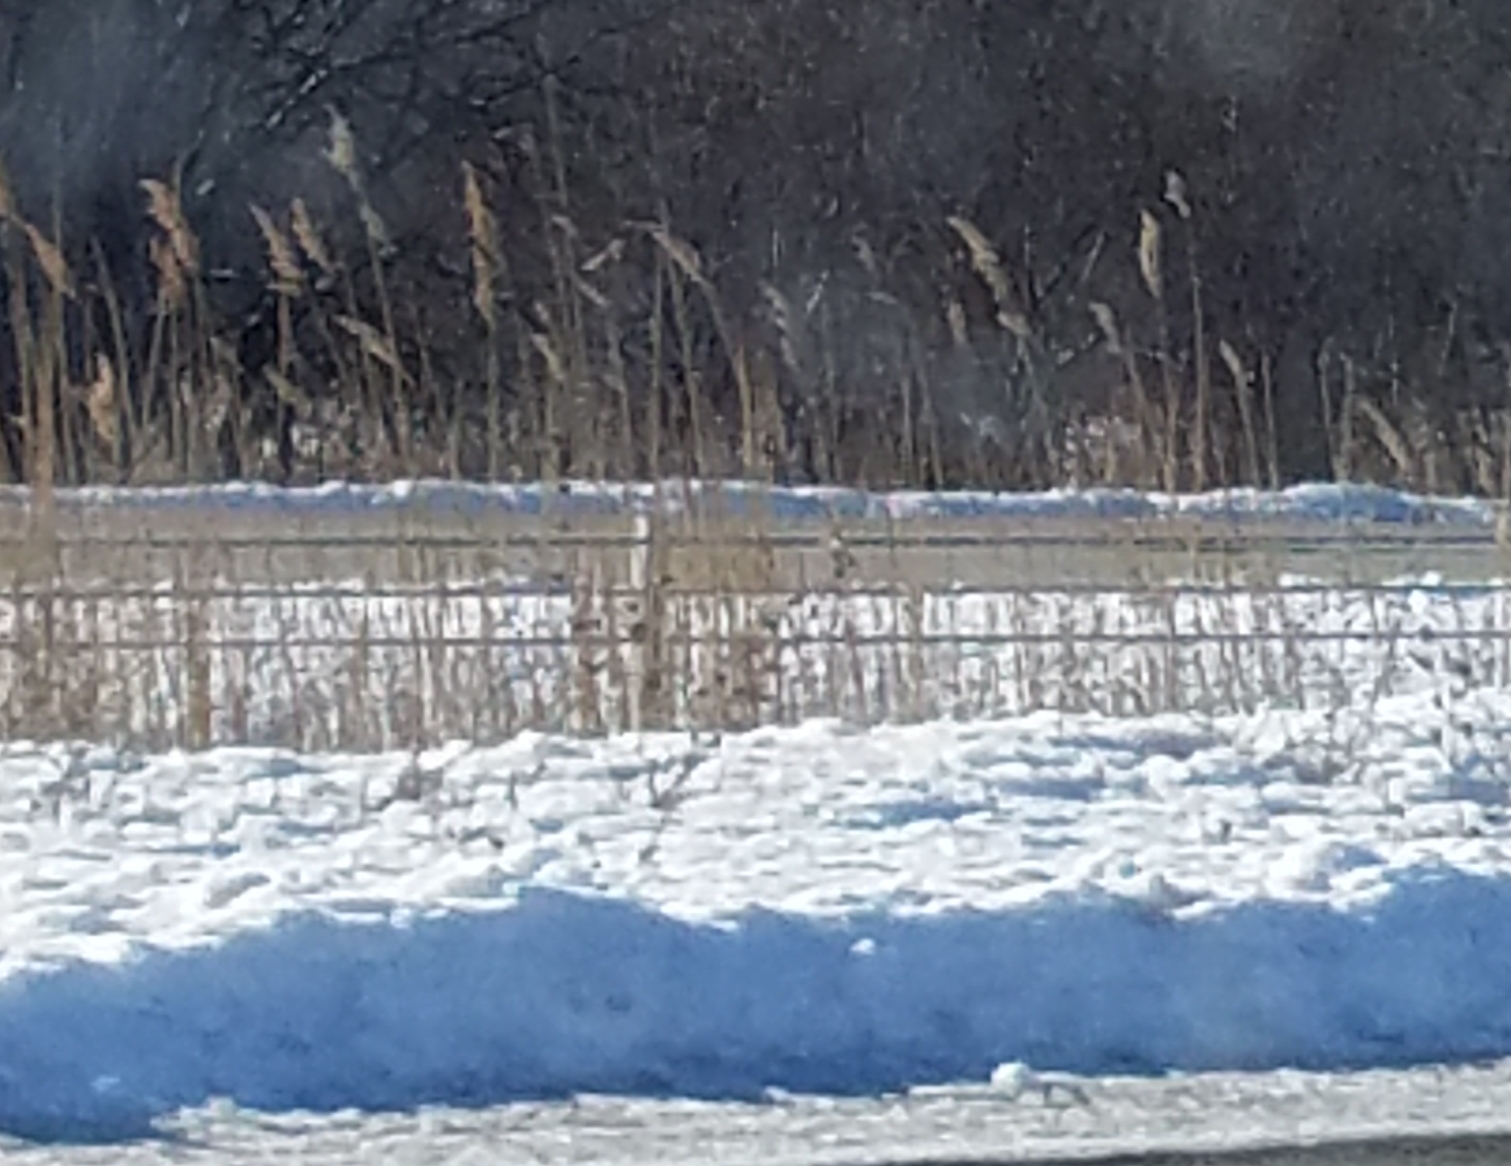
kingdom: Plantae
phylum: Tracheophyta
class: Liliopsida
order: Poales
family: Poaceae
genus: Phragmites
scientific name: Phragmites australis
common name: Common reed
